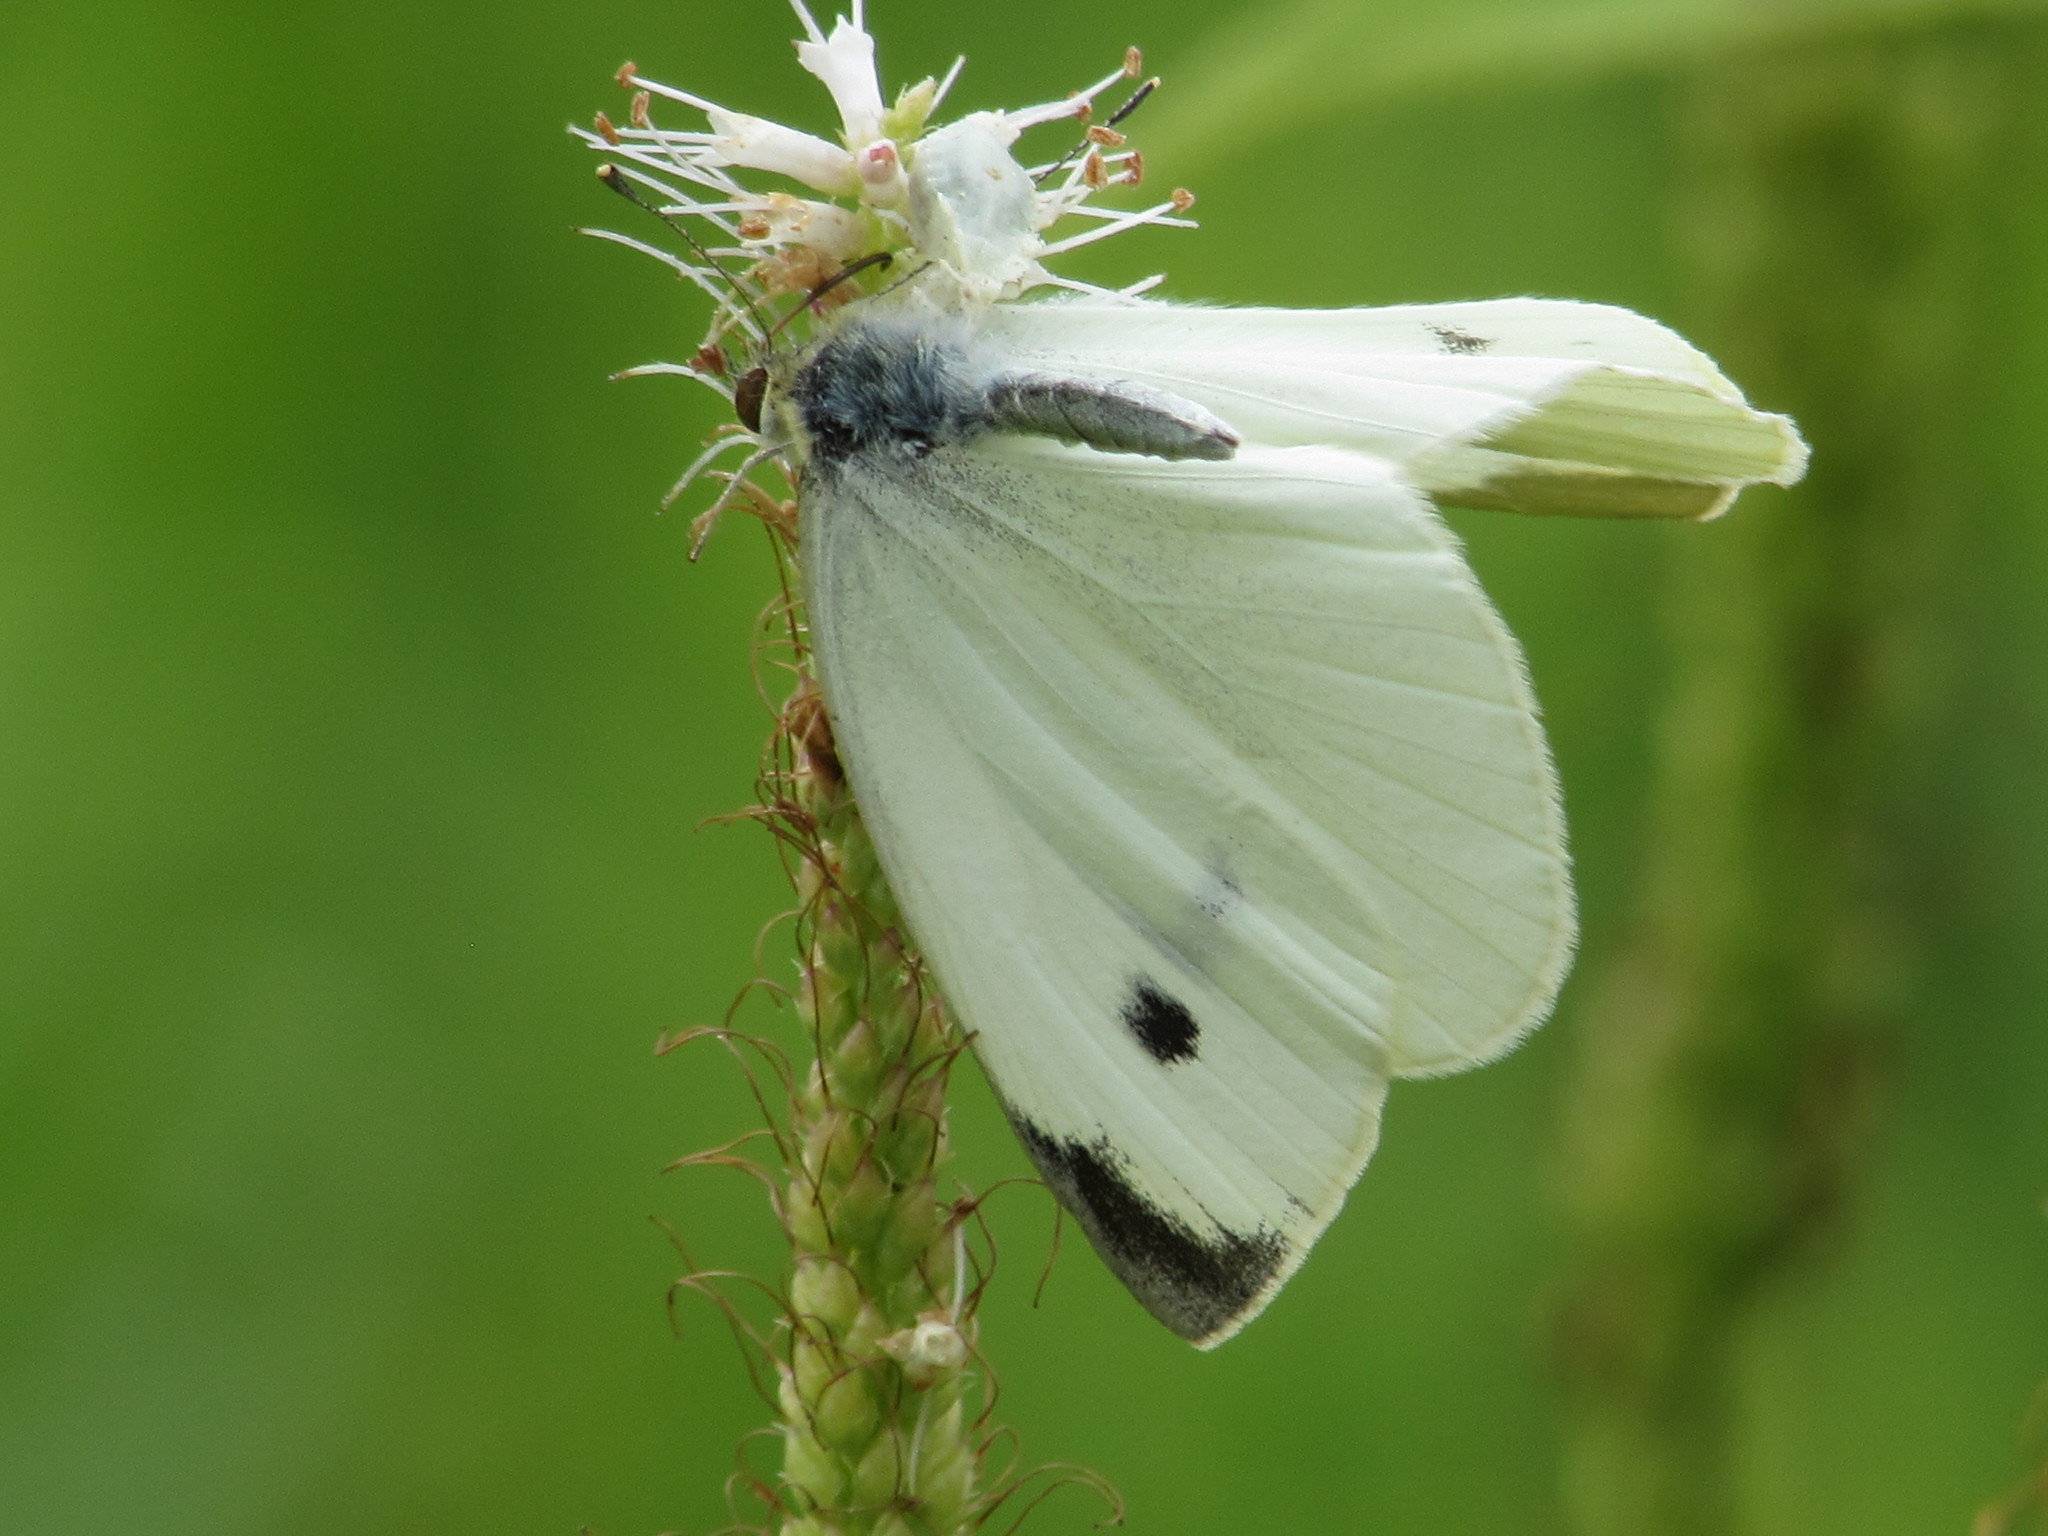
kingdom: Animalia
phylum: Arthropoda
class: Insecta
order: Lepidoptera
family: Pieridae
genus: Pieris
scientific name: Pieris rapae
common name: Small white
